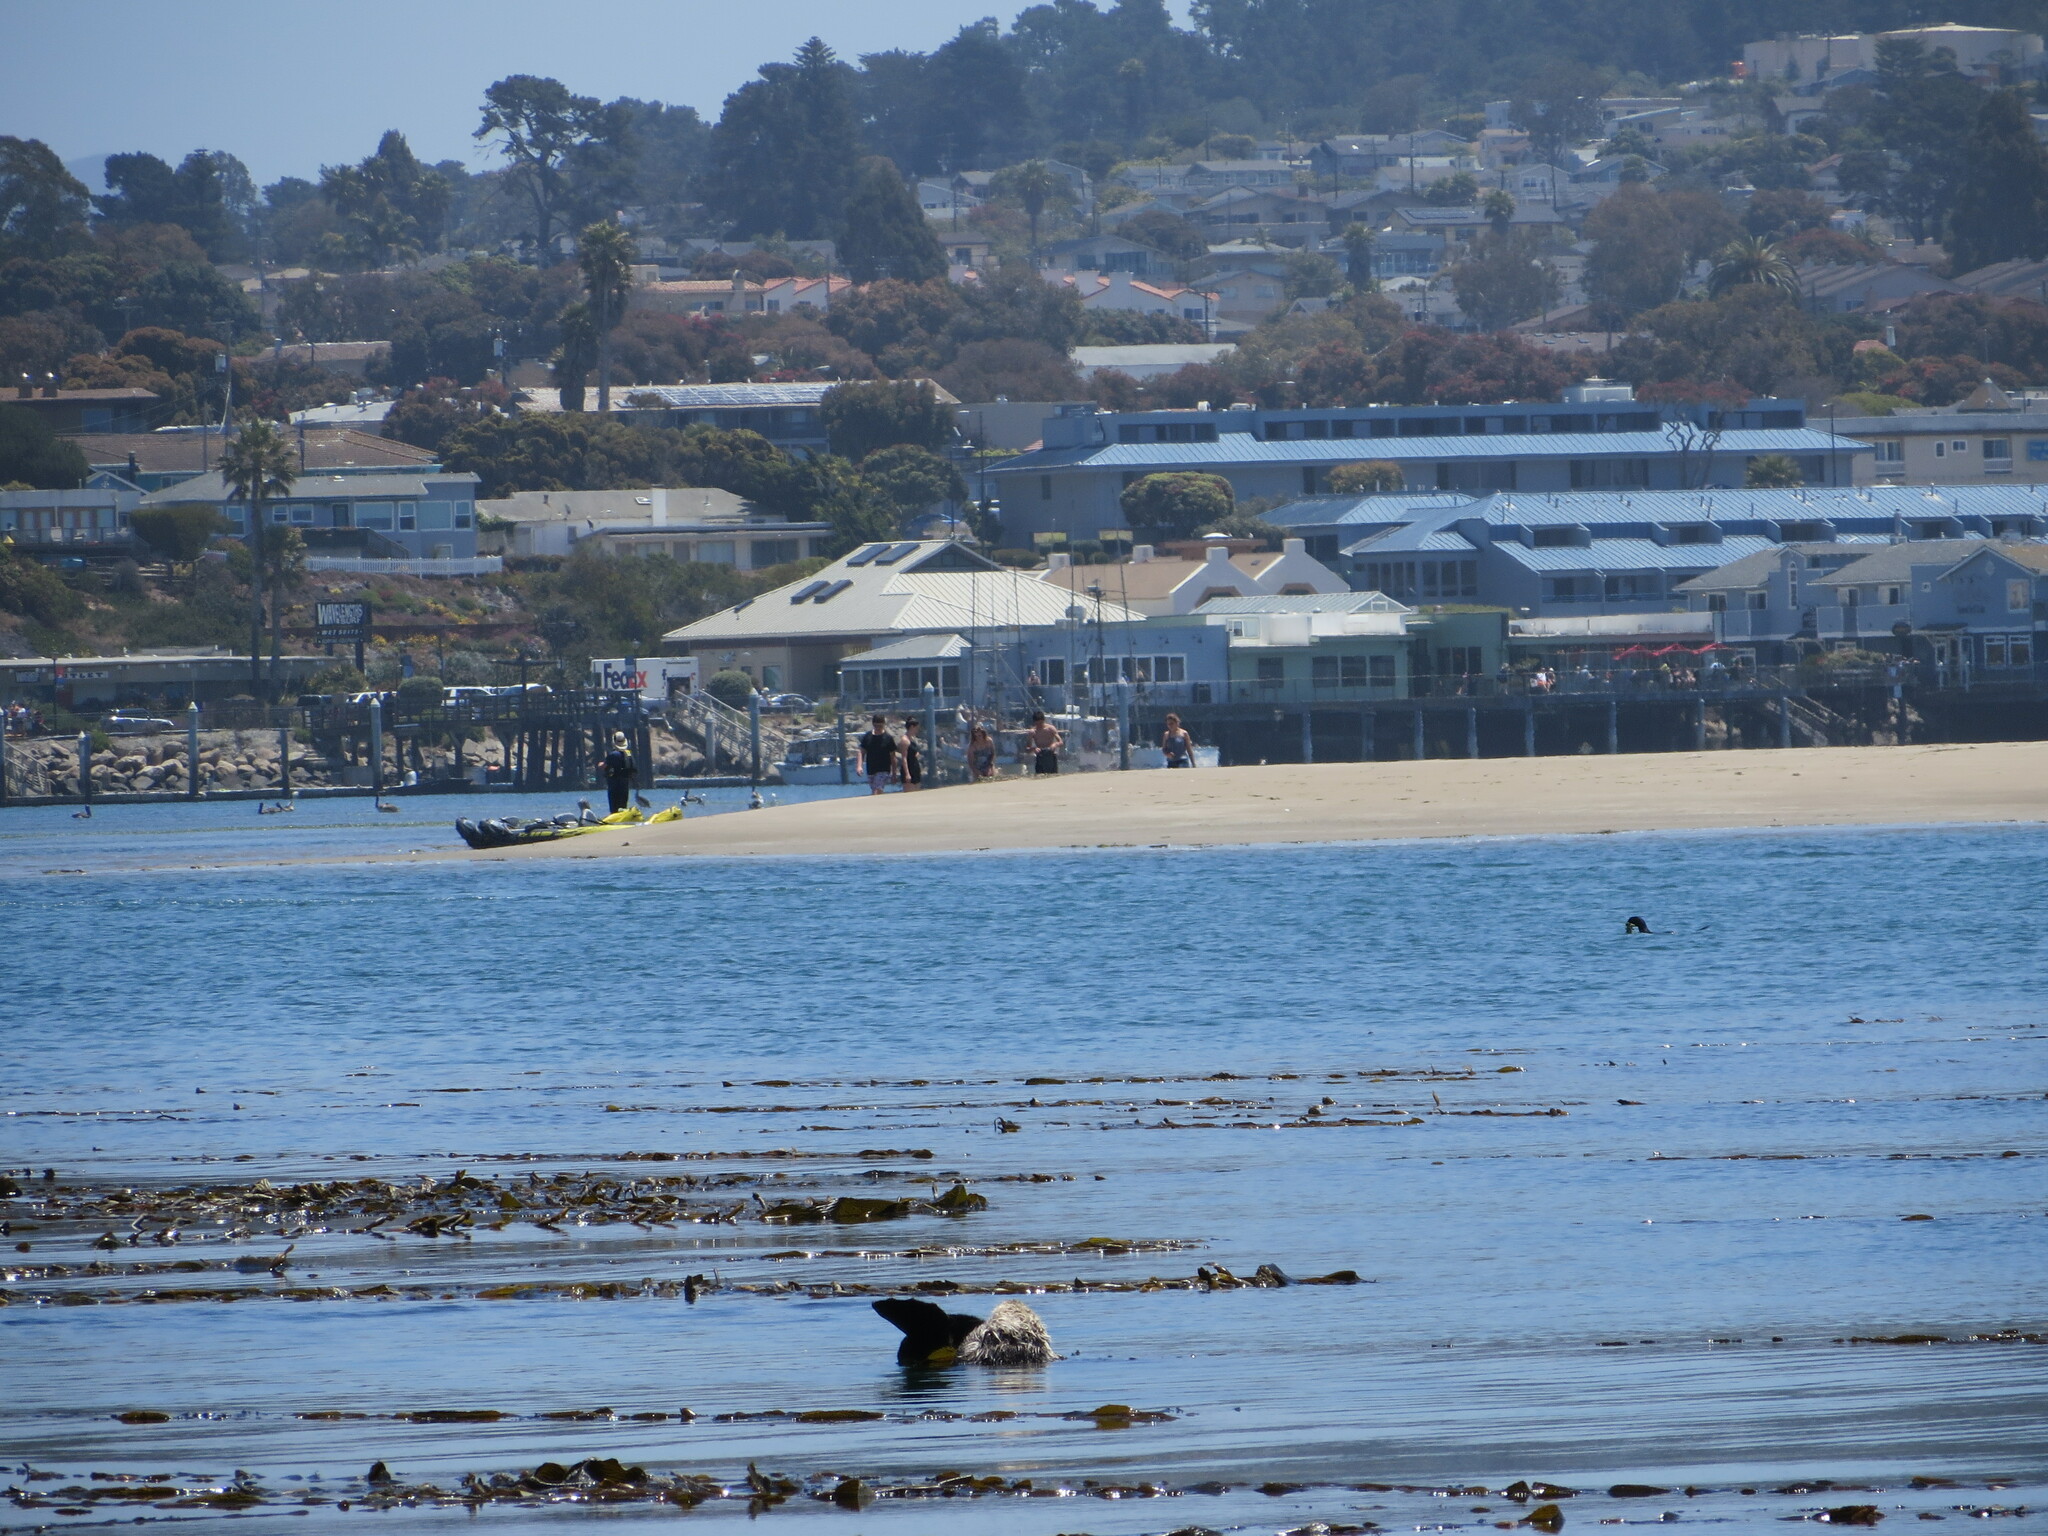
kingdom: Animalia
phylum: Chordata
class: Mammalia
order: Carnivora
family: Mustelidae
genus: Enhydra
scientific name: Enhydra lutris
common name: Sea otter
